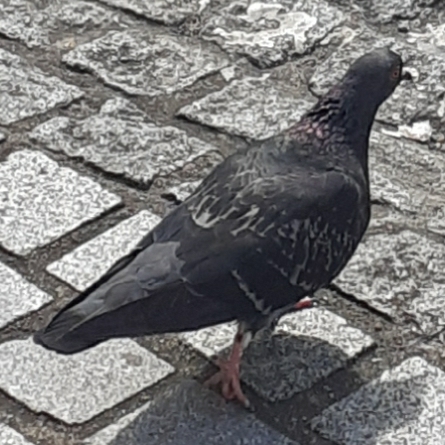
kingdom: Animalia
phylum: Chordata
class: Aves
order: Columbiformes
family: Columbidae
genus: Columba
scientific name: Columba livia
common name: Rock pigeon
